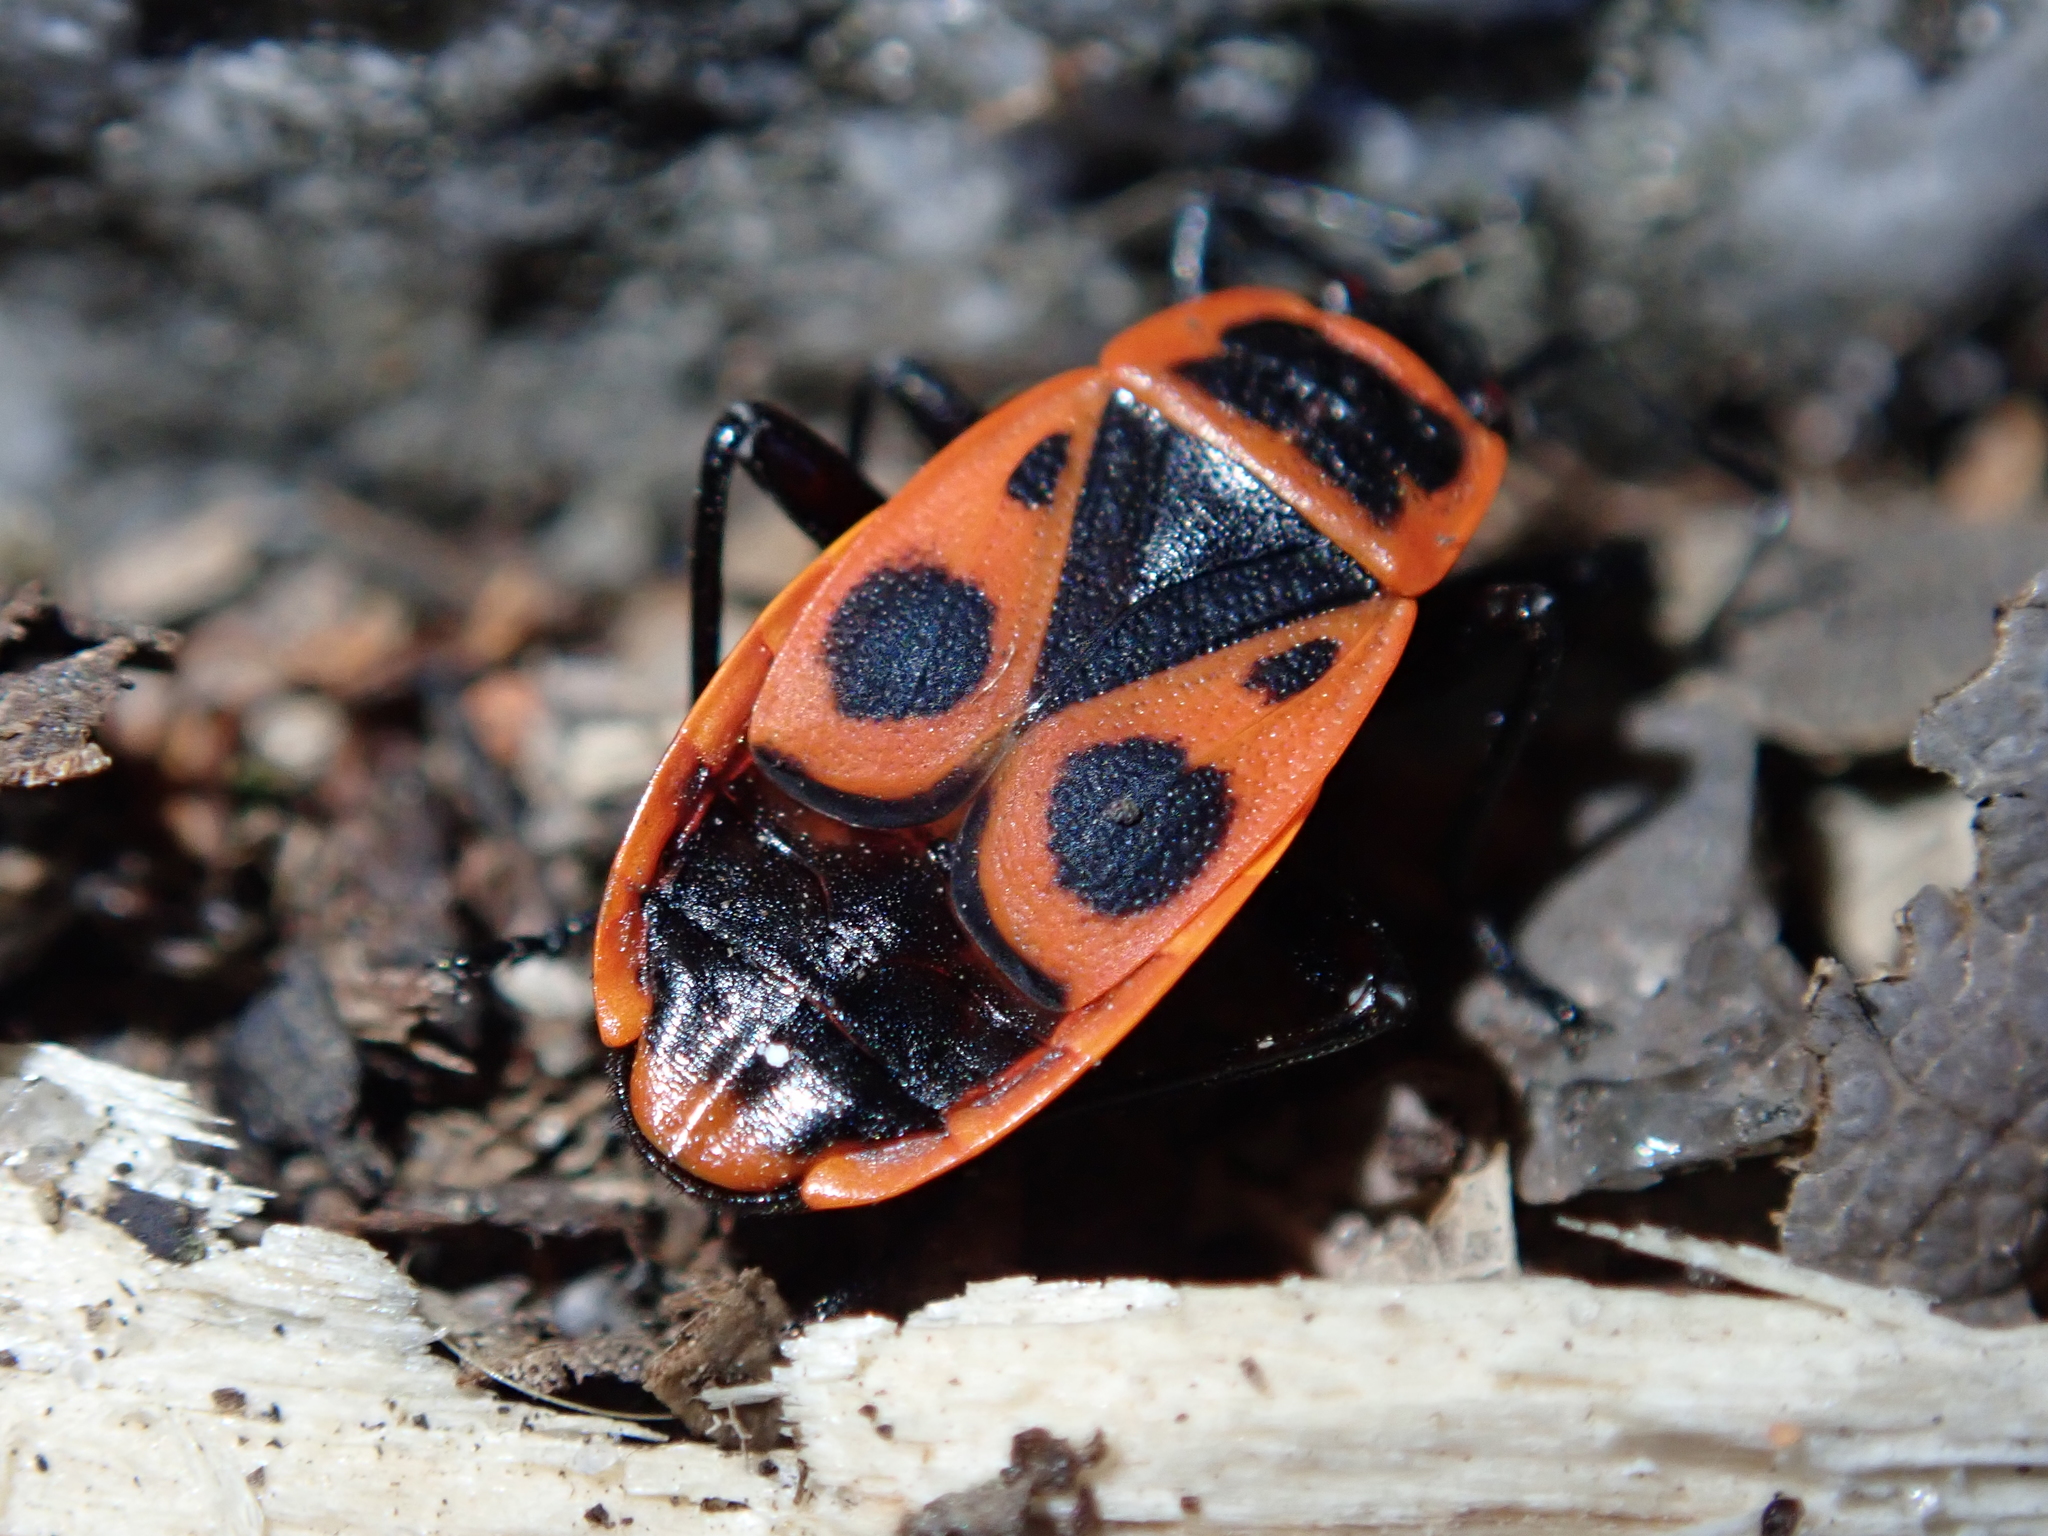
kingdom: Animalia
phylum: Arthropoda
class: Insecta
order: Hemiptera
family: Pyrrhocoridae
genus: Pyrrhocoris
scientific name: Pyrrhocoris apterus
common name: Firebug
